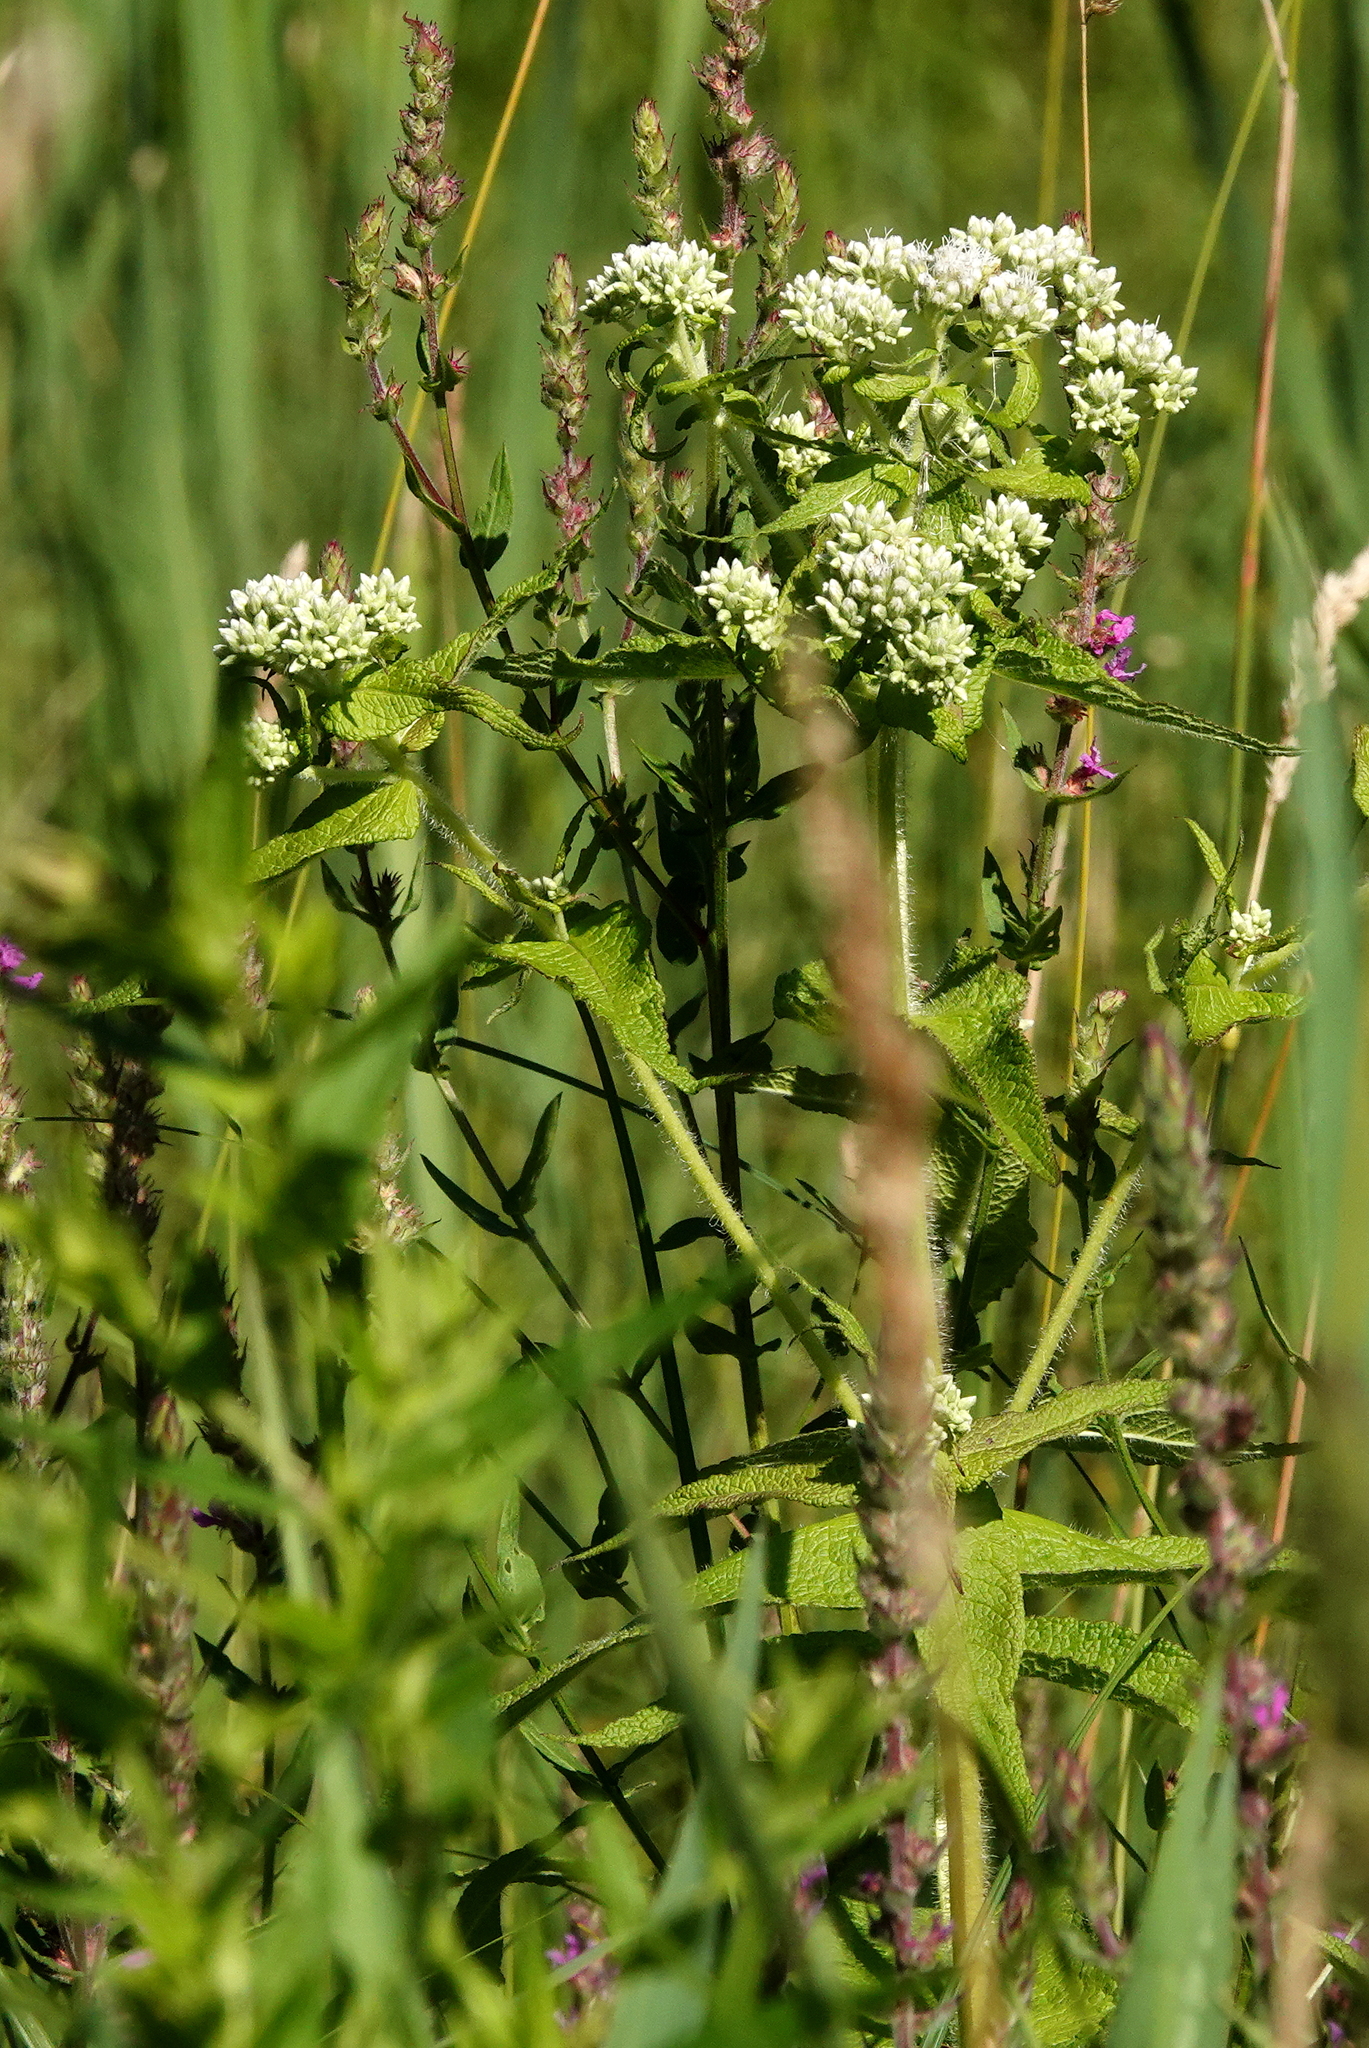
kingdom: Plantae
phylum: Tracheophyta
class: Magnoliopsida
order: Asterales
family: Asteraceae
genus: Eupatorium
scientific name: Eupatorium perfoliatum
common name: Boneset
